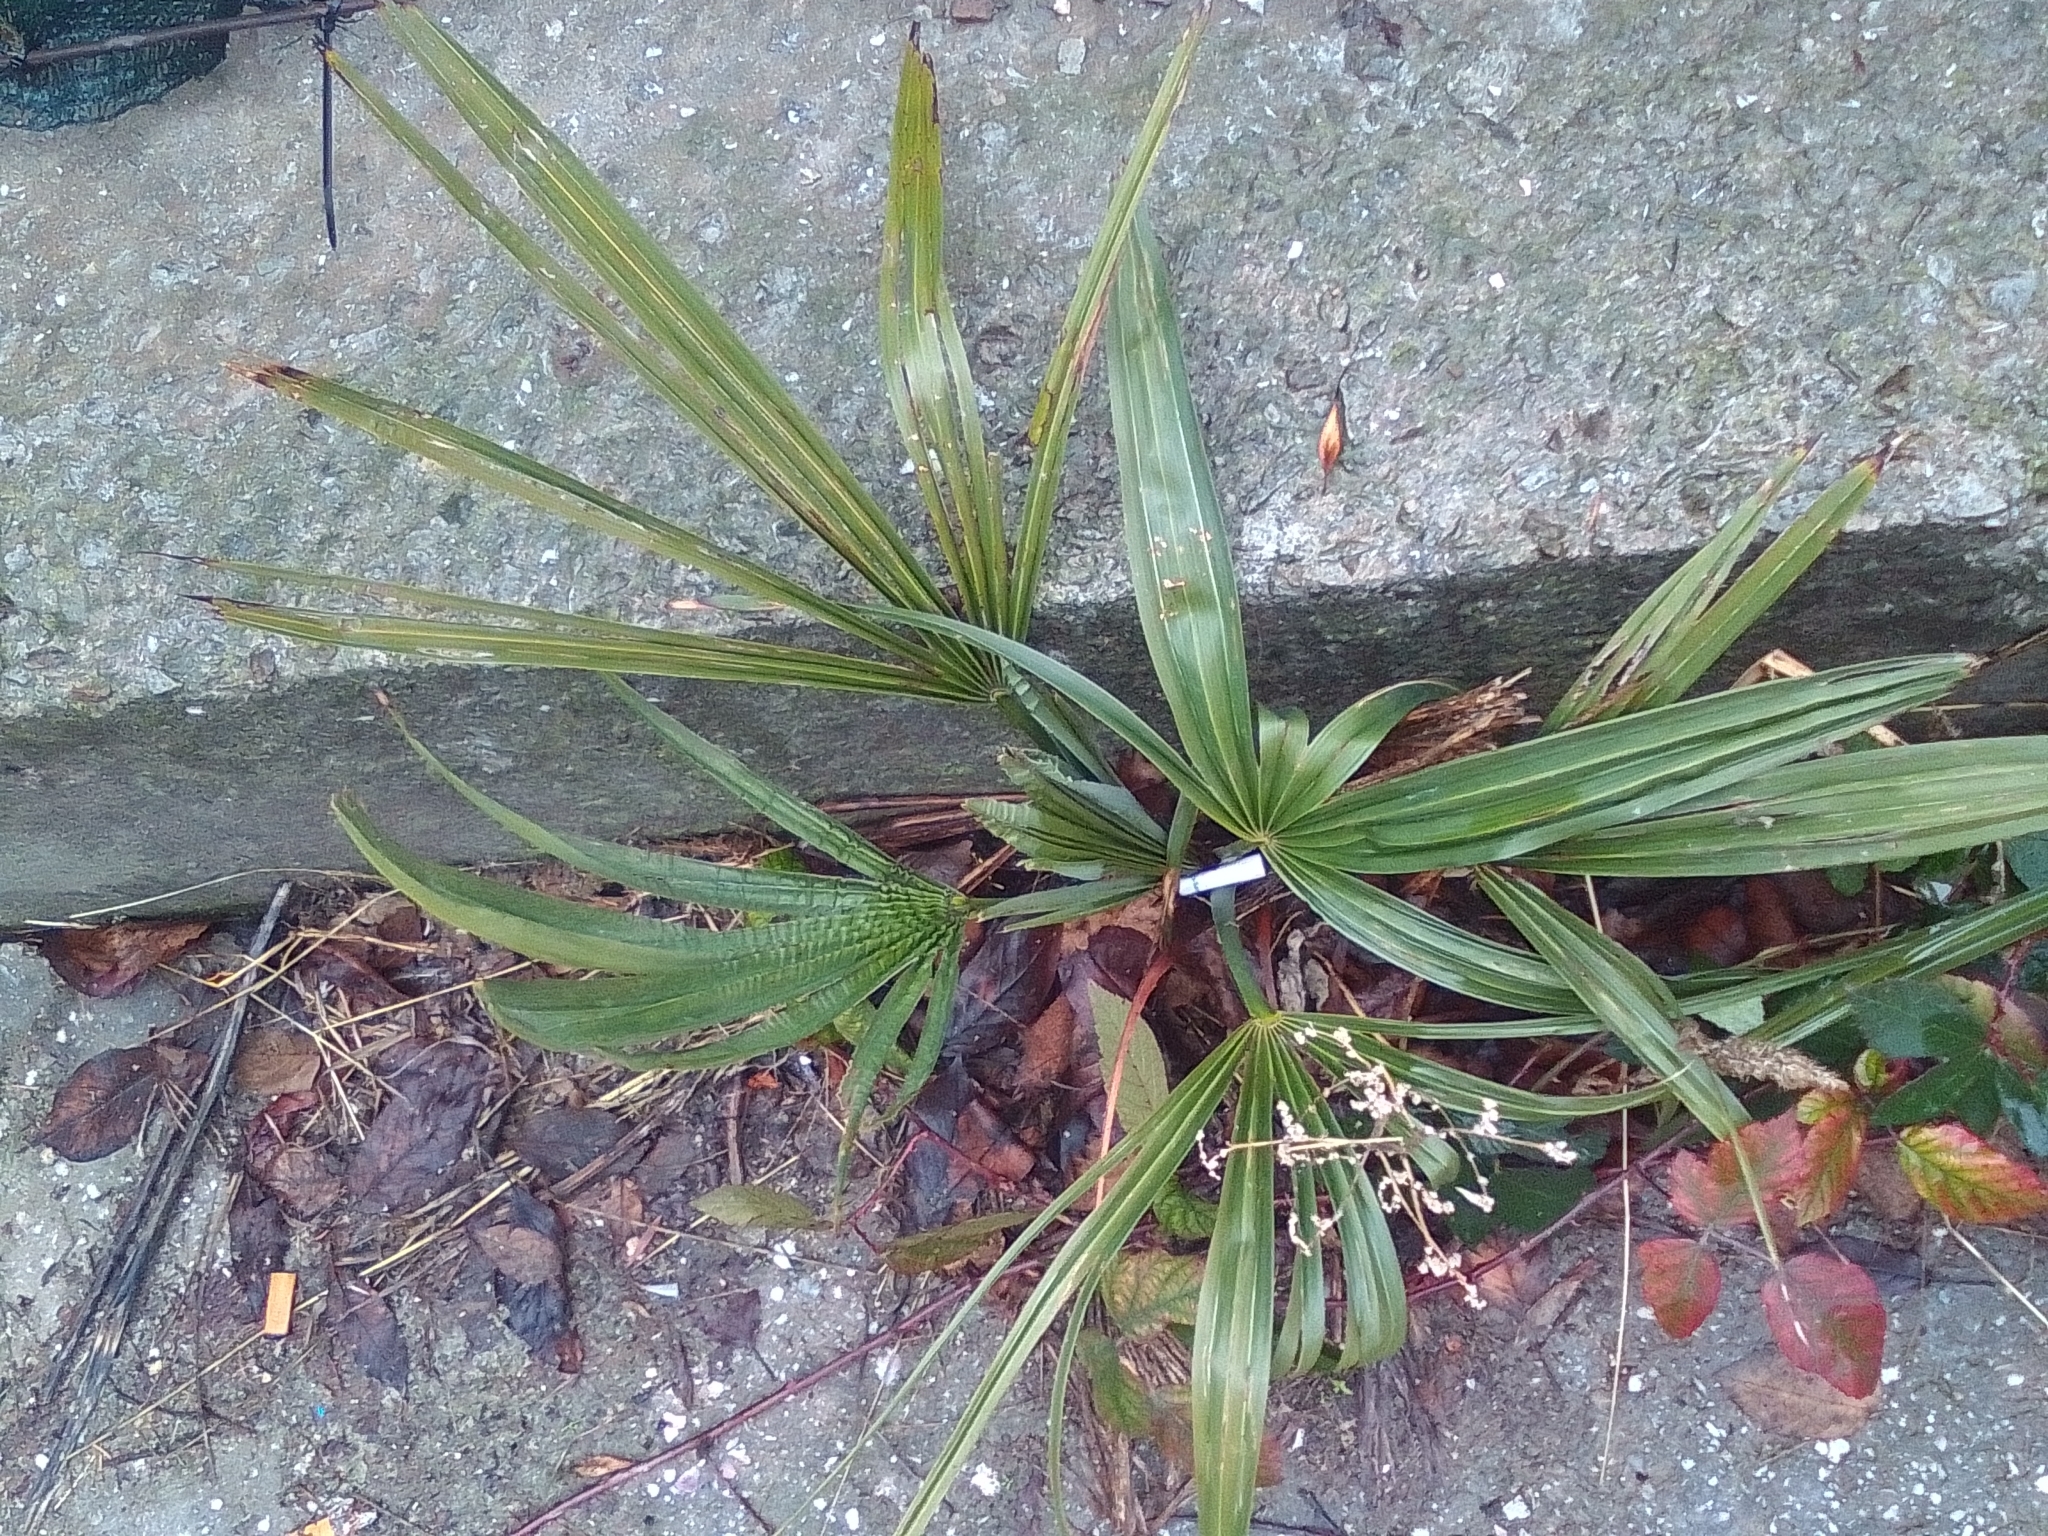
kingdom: Plantae
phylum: Tracheophyta
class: Liliopsida
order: Arecales
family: Arecaceae
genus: Trachycarpus
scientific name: Trachycarpus fortunei
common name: Chusan palm
